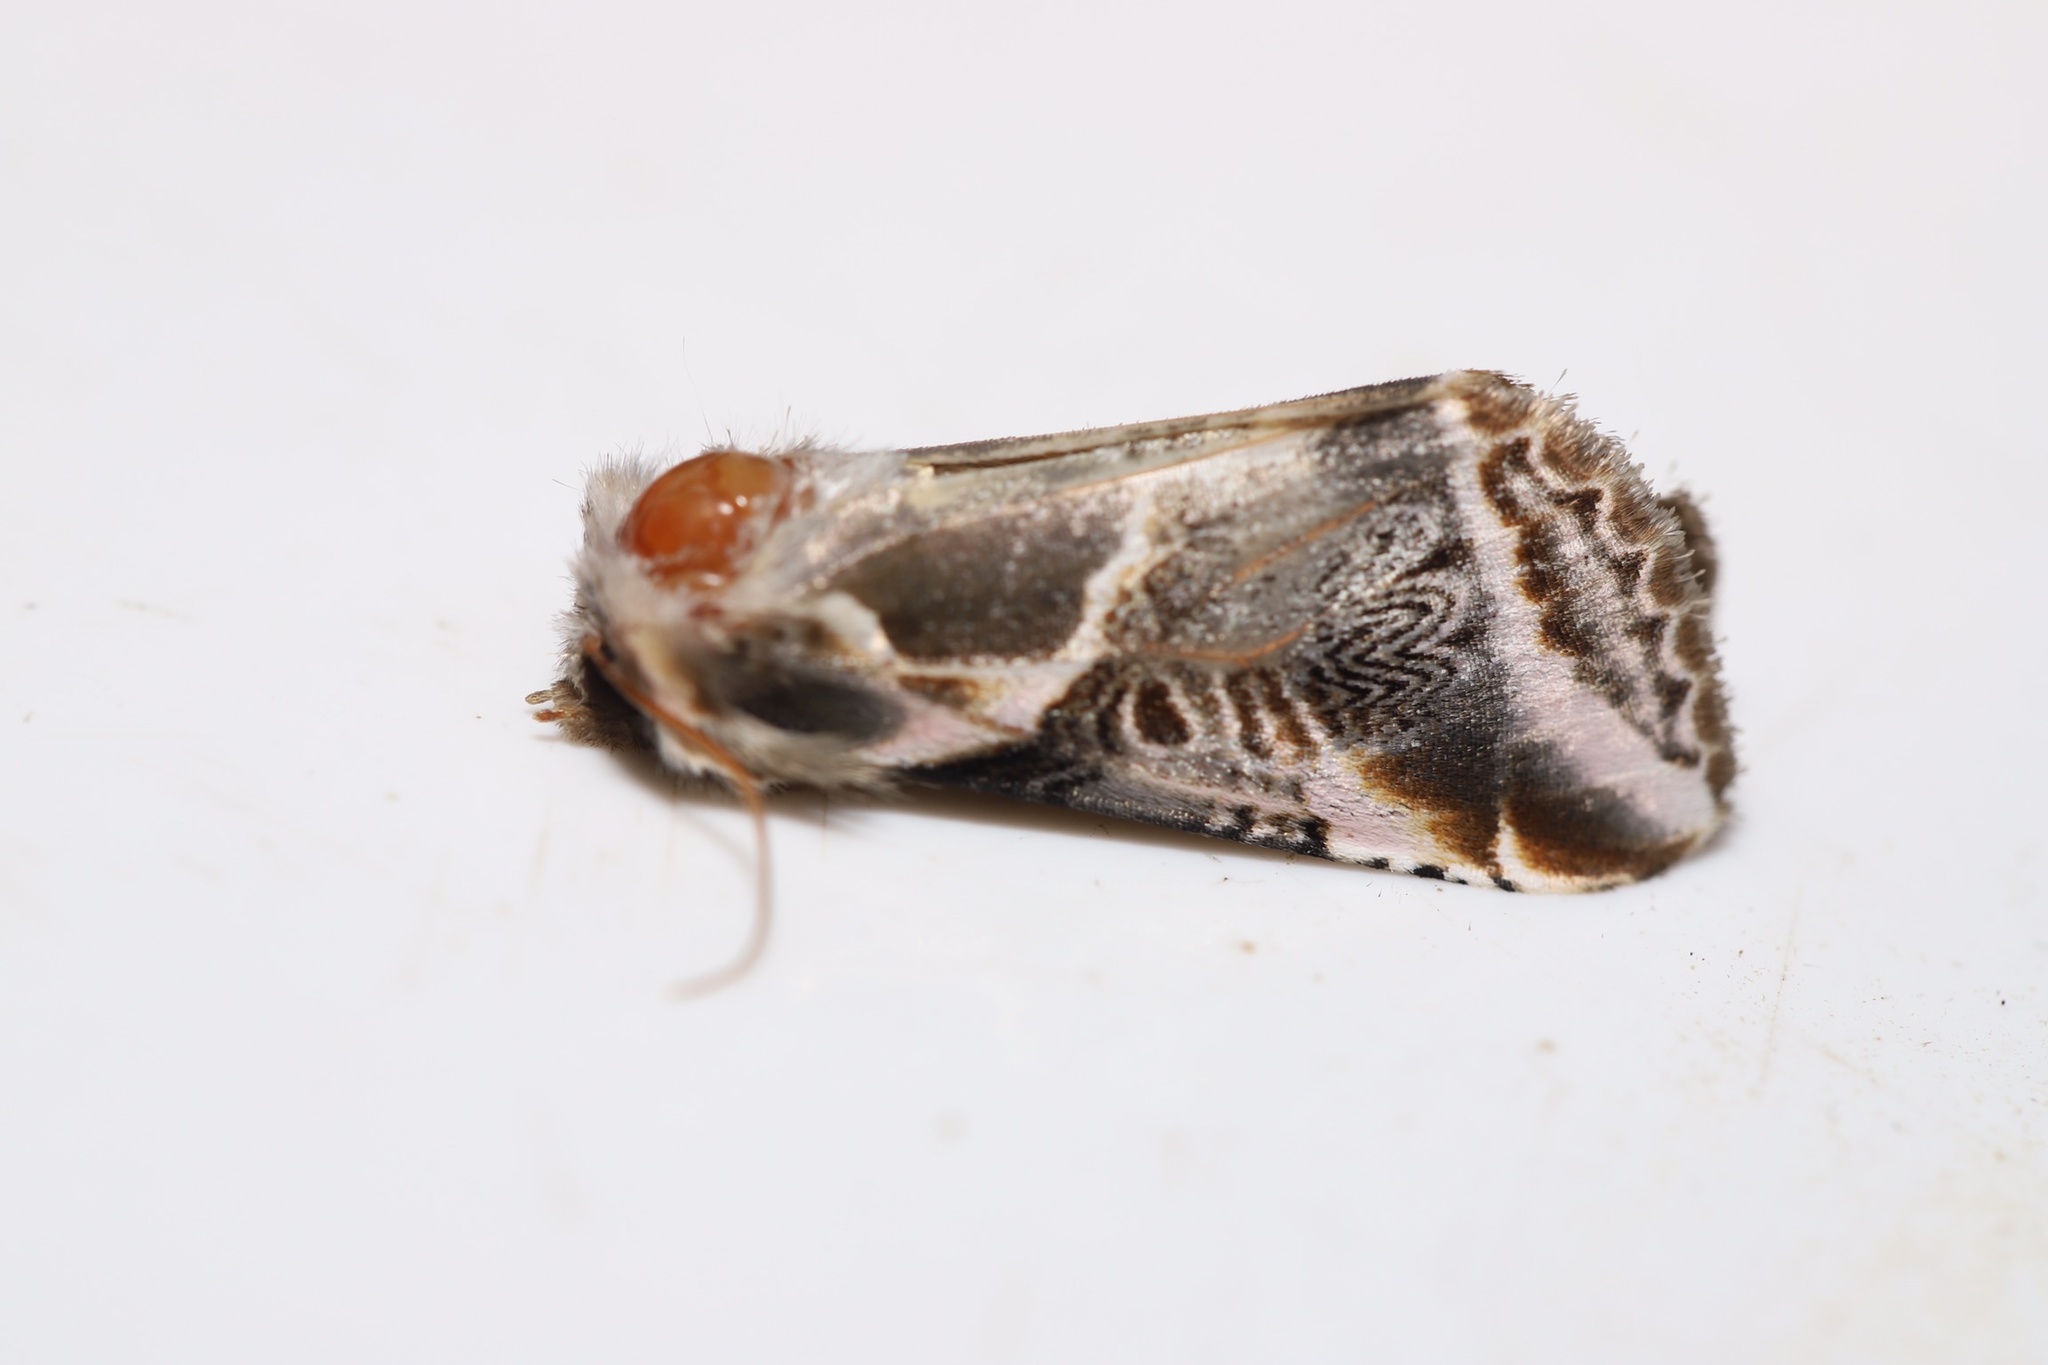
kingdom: Animalia
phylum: Arthropoda
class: Insecta
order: Lepidoptera
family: Drepanidae
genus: Habrosyne
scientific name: Habrosyne scripta
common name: Lettered habrosyne moth
